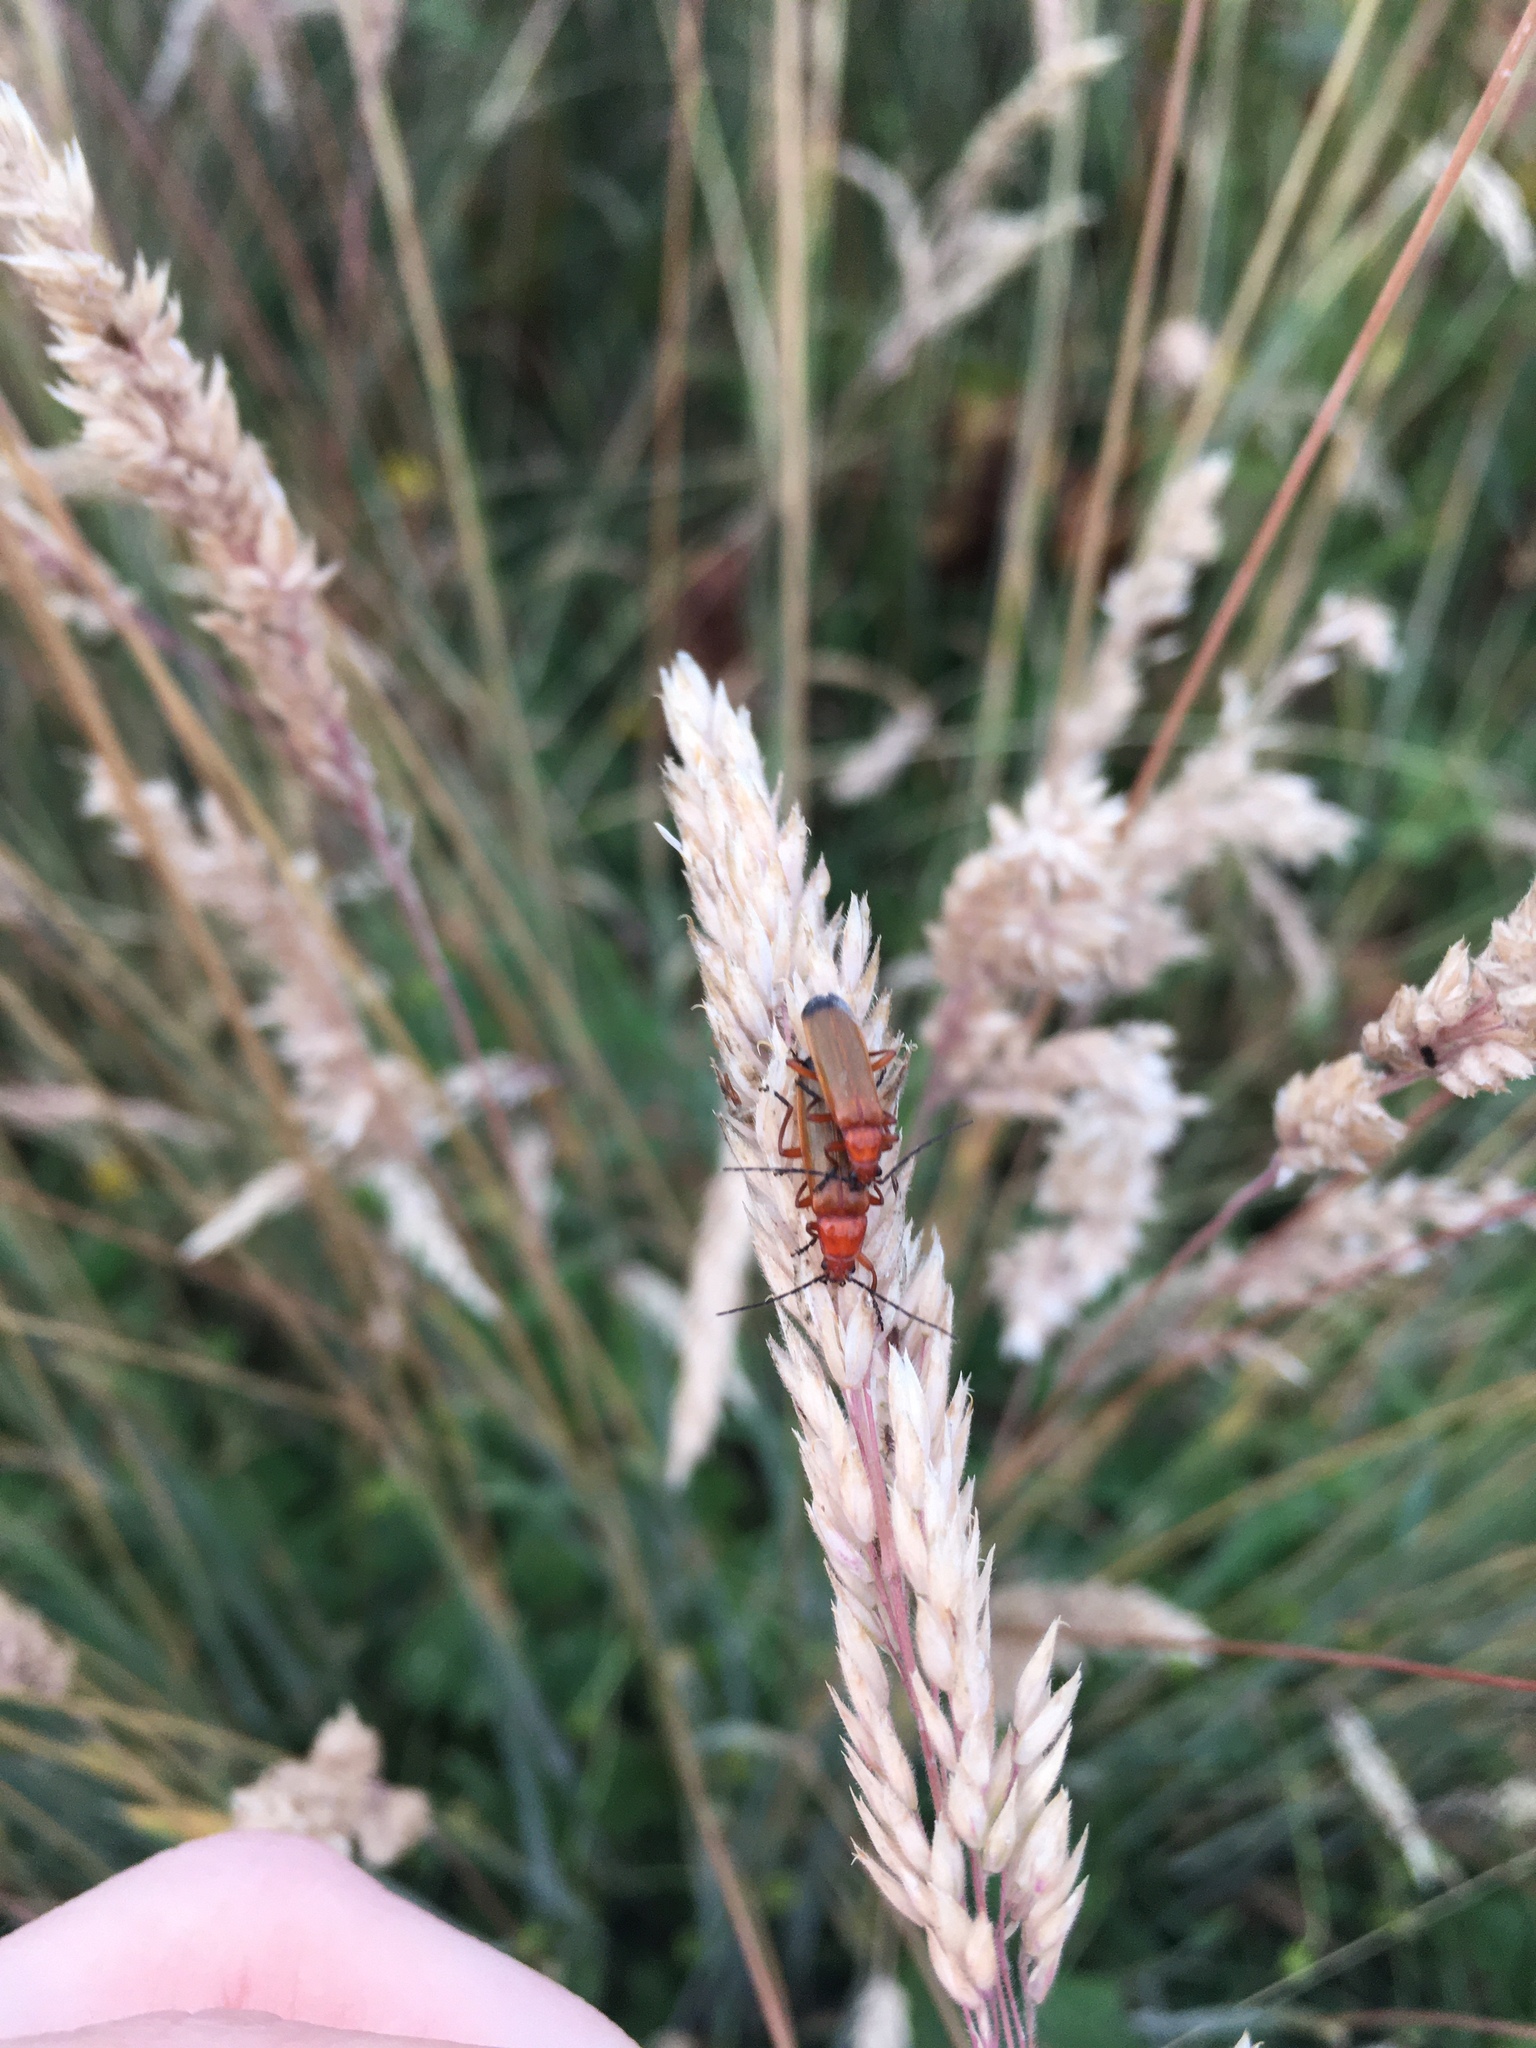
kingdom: Animalia
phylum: Arthropoda
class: Insecta
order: Coleoptera
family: Cantharidae
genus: Rhagonycha
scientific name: Rhagonycha fulva
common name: Common red soldier beetle
